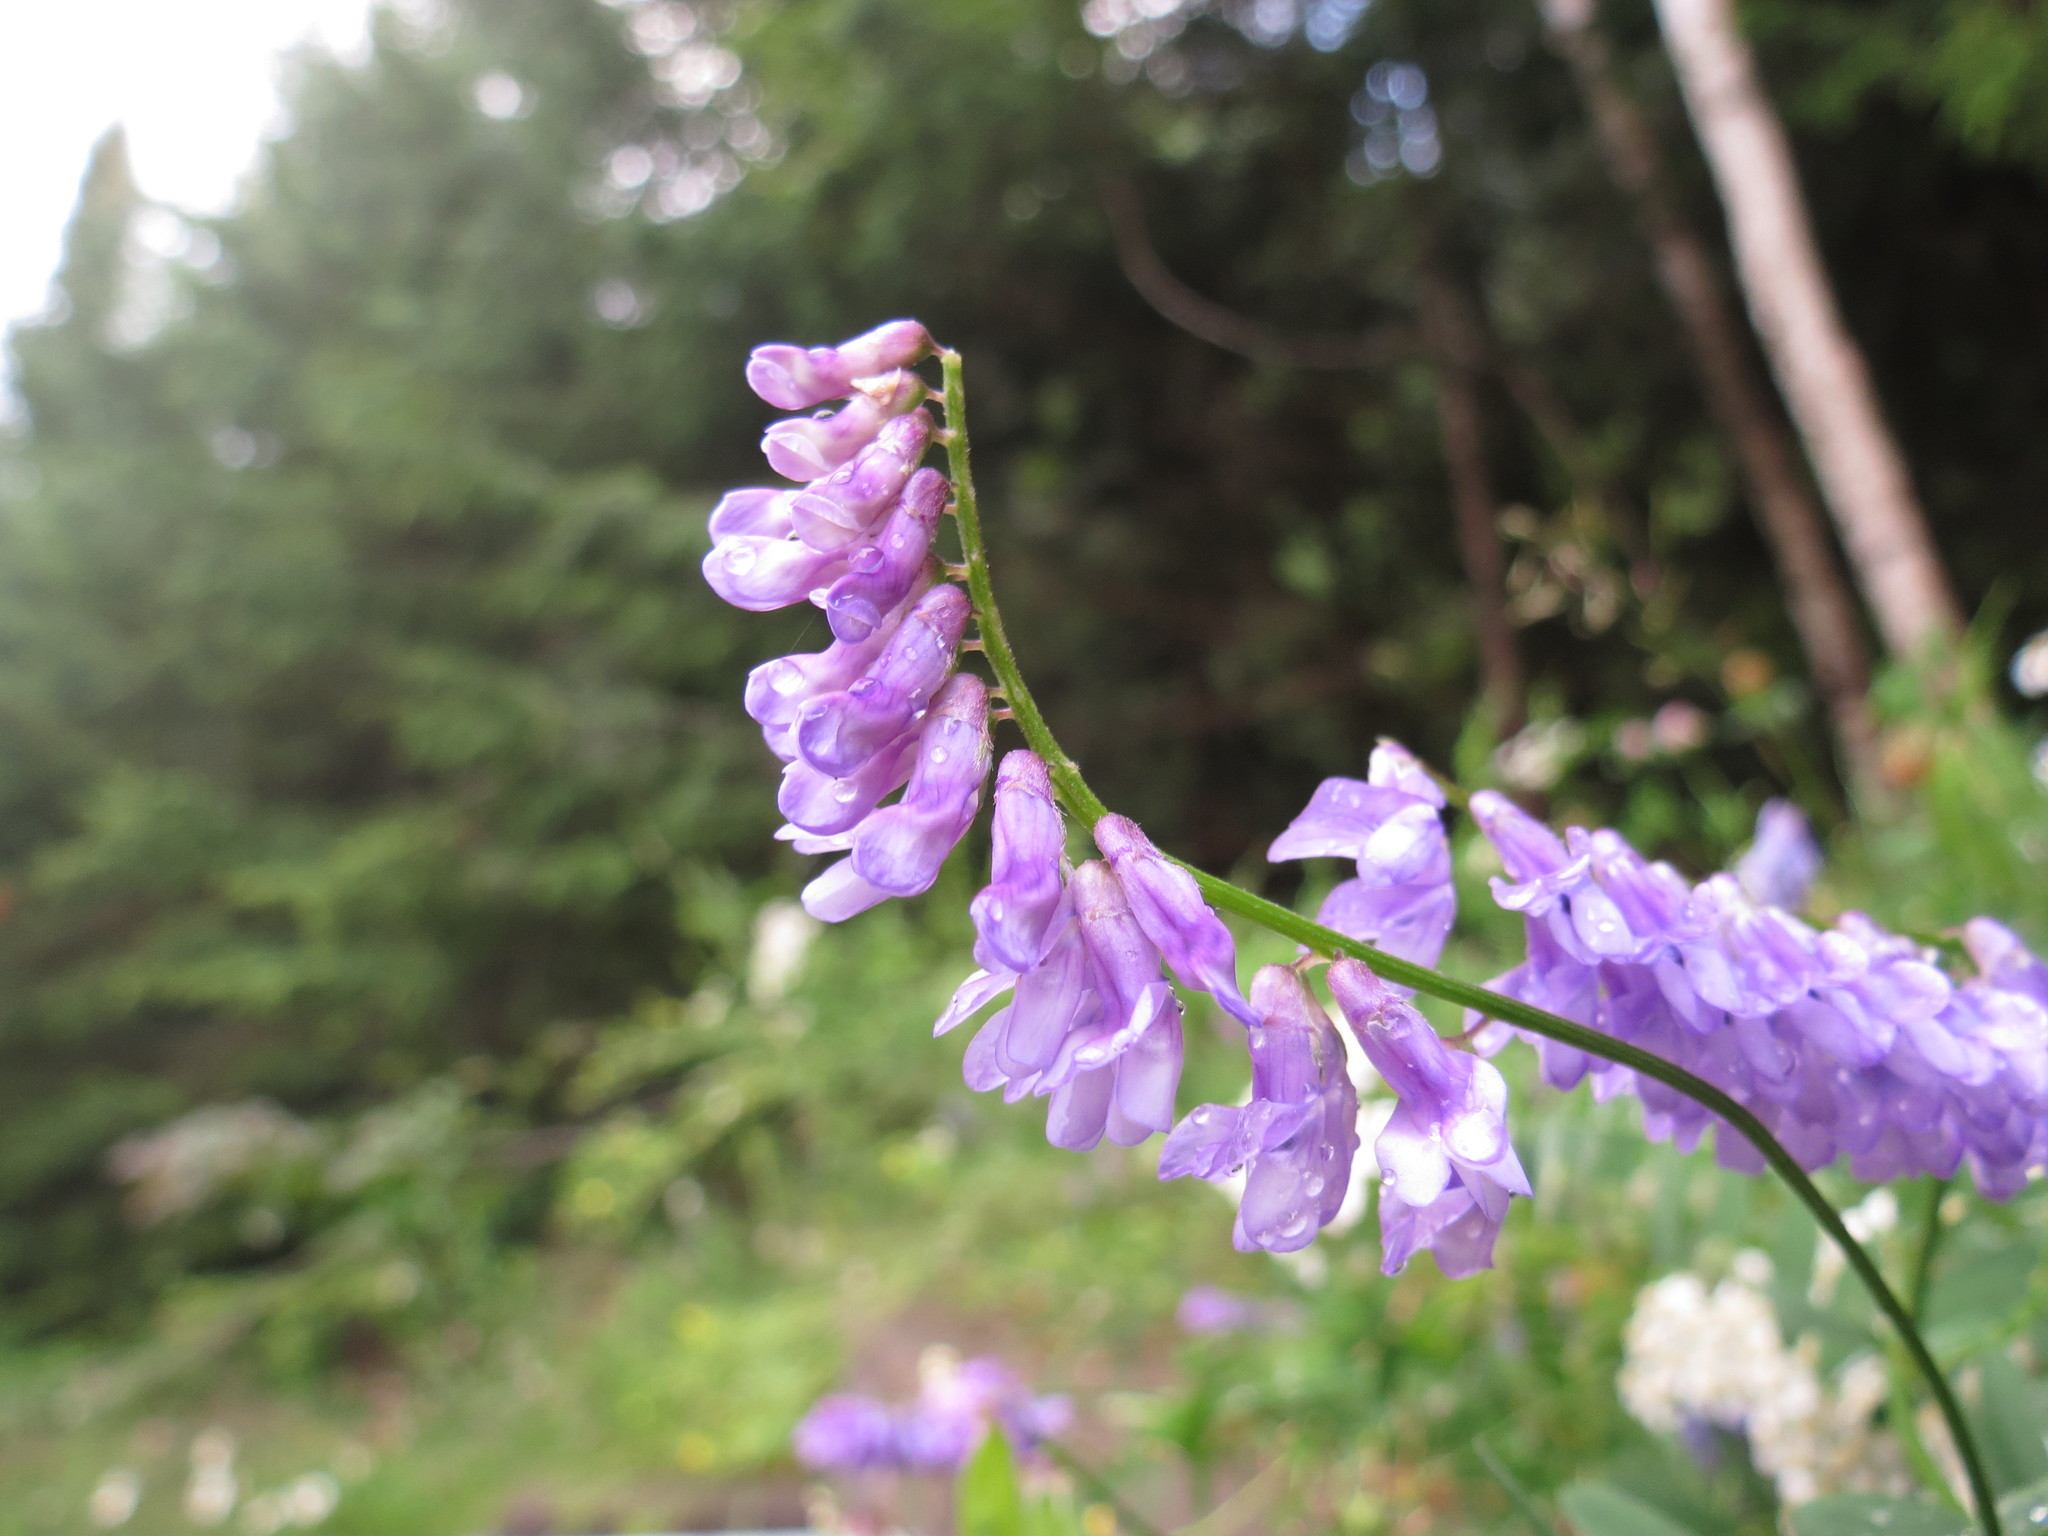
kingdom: Plantae
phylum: Tracheophyta
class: Magnoliopsida
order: Fabales
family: Fabaceae
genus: Vicia
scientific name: Vicia cracca
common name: Bird vetch
